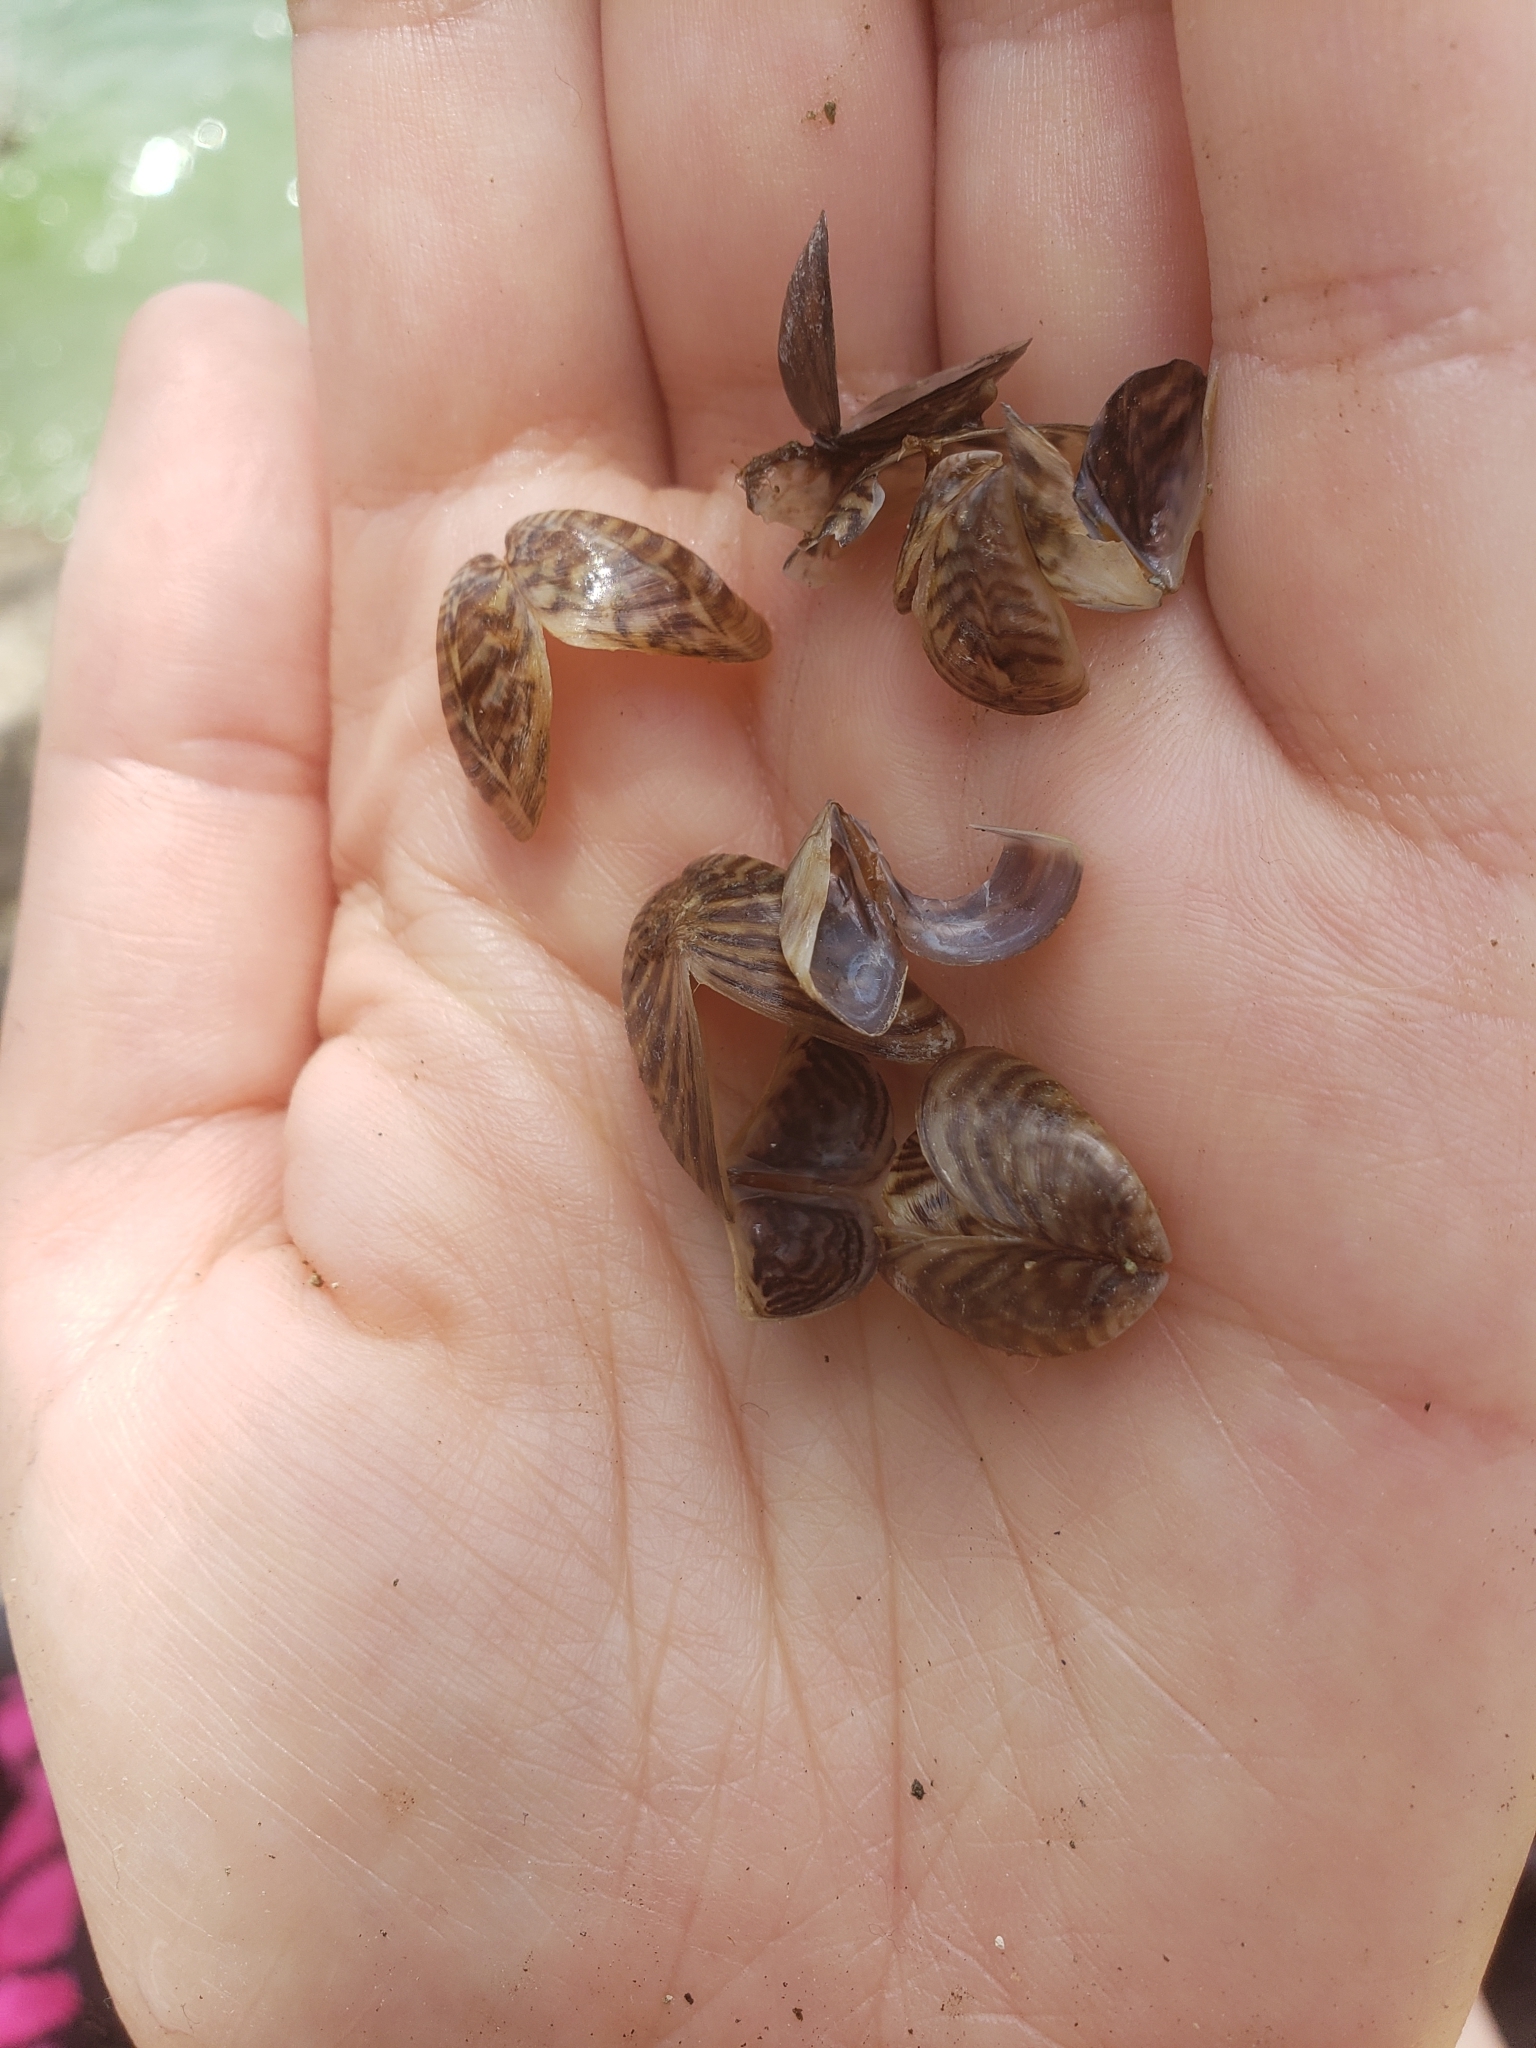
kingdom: Animalia
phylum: Mollusca
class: Bivalvia
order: Myida
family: Dreissenidae
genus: Dreissena
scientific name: Dreissena polymorpha
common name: Zebra mussel
